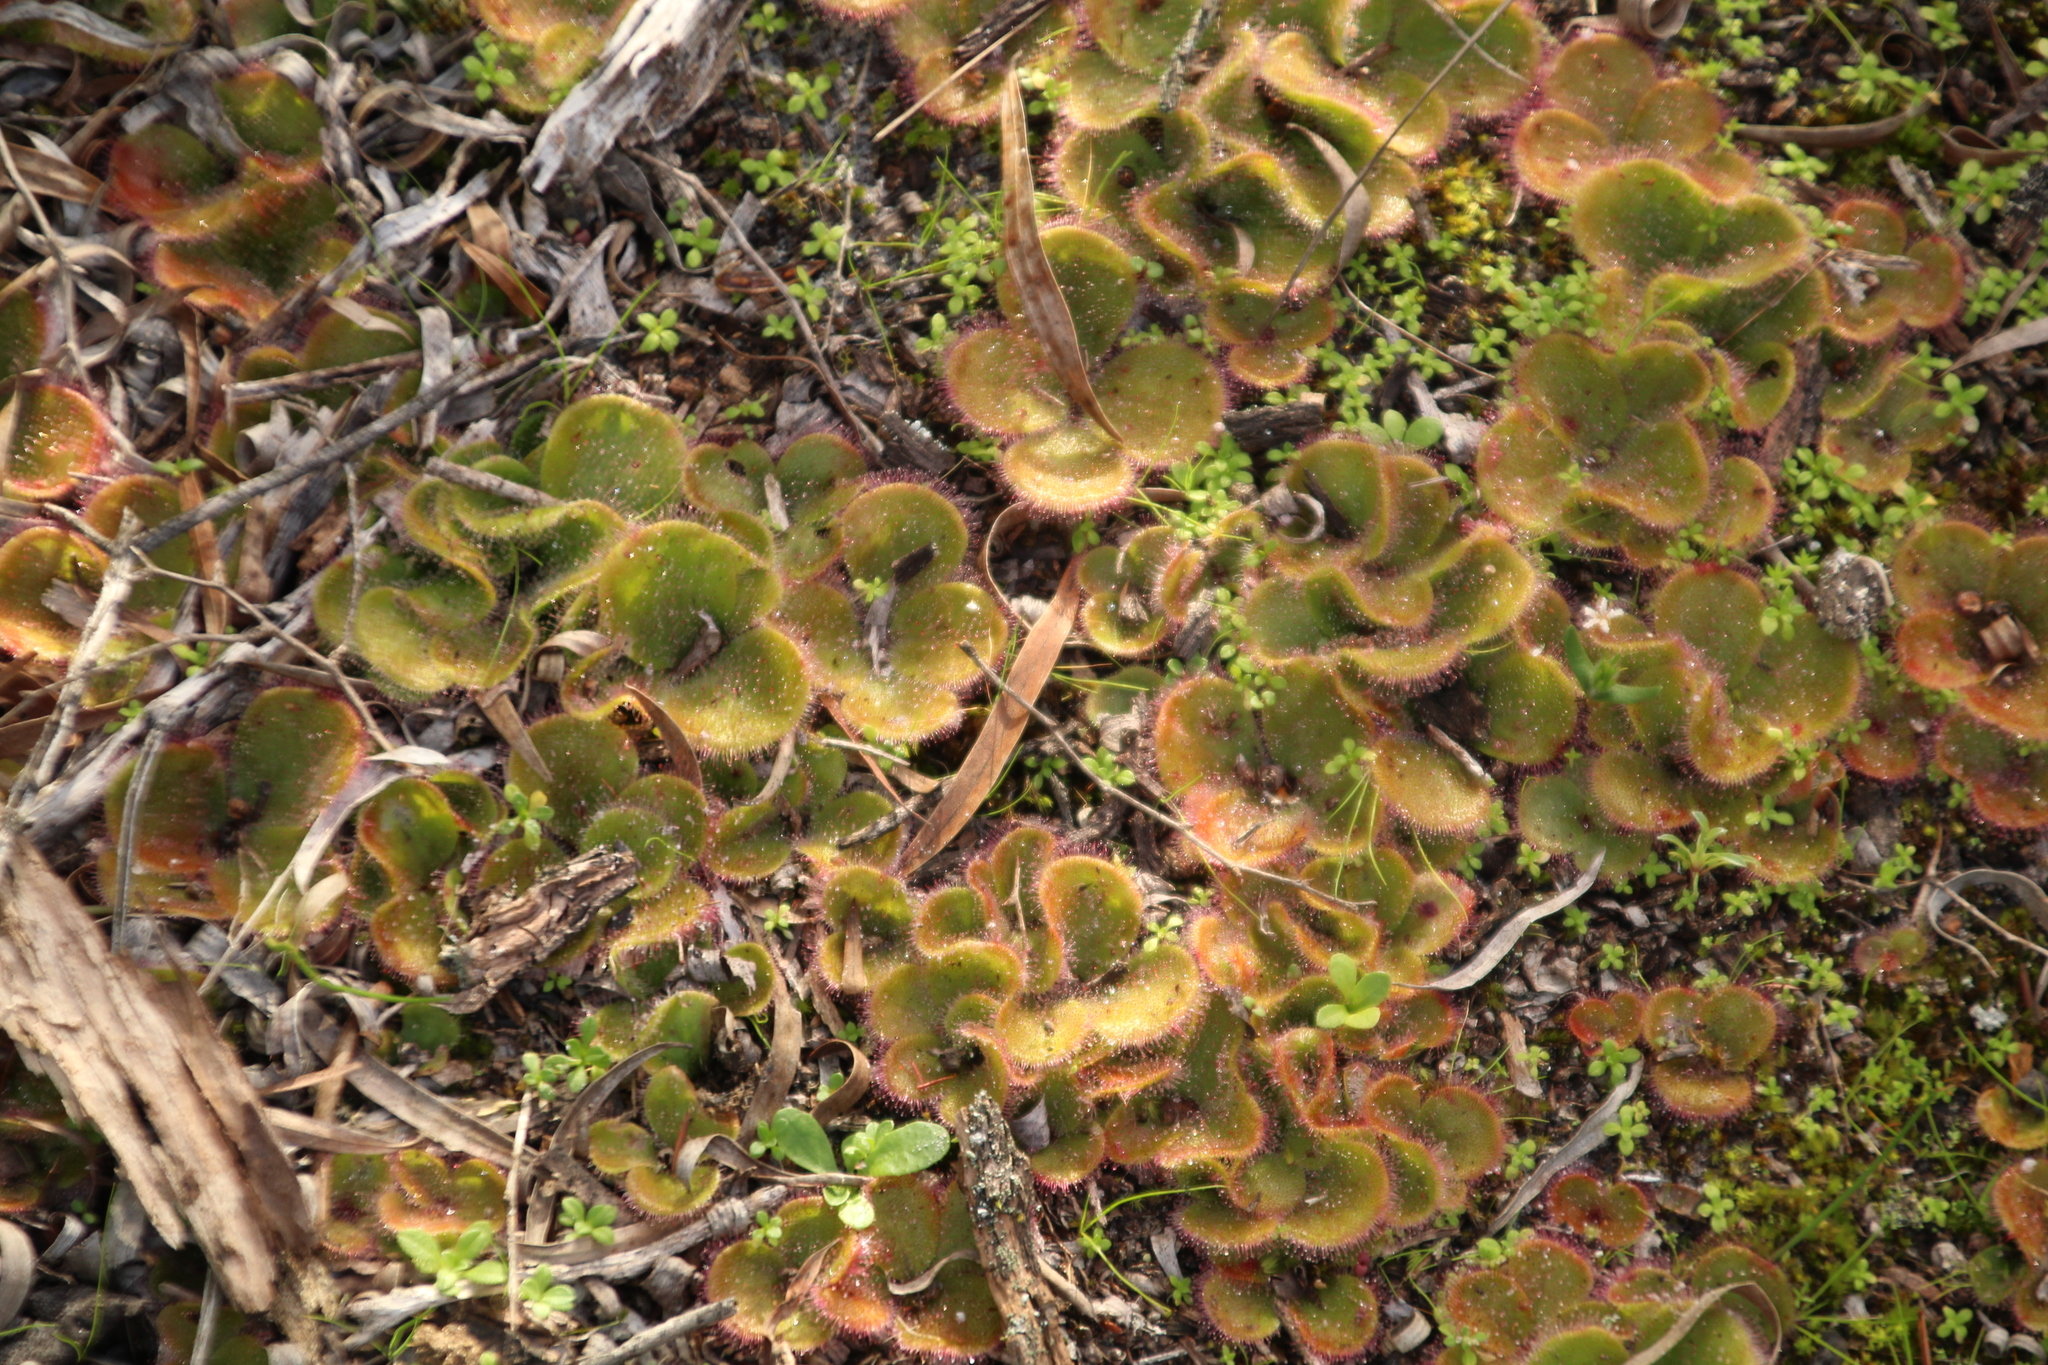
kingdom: Plantae
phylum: Tracheophyta
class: Magnoliopsida
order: Caryophyllales
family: Droseraceae
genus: Drosera
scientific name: Drosera erythrorhiza
